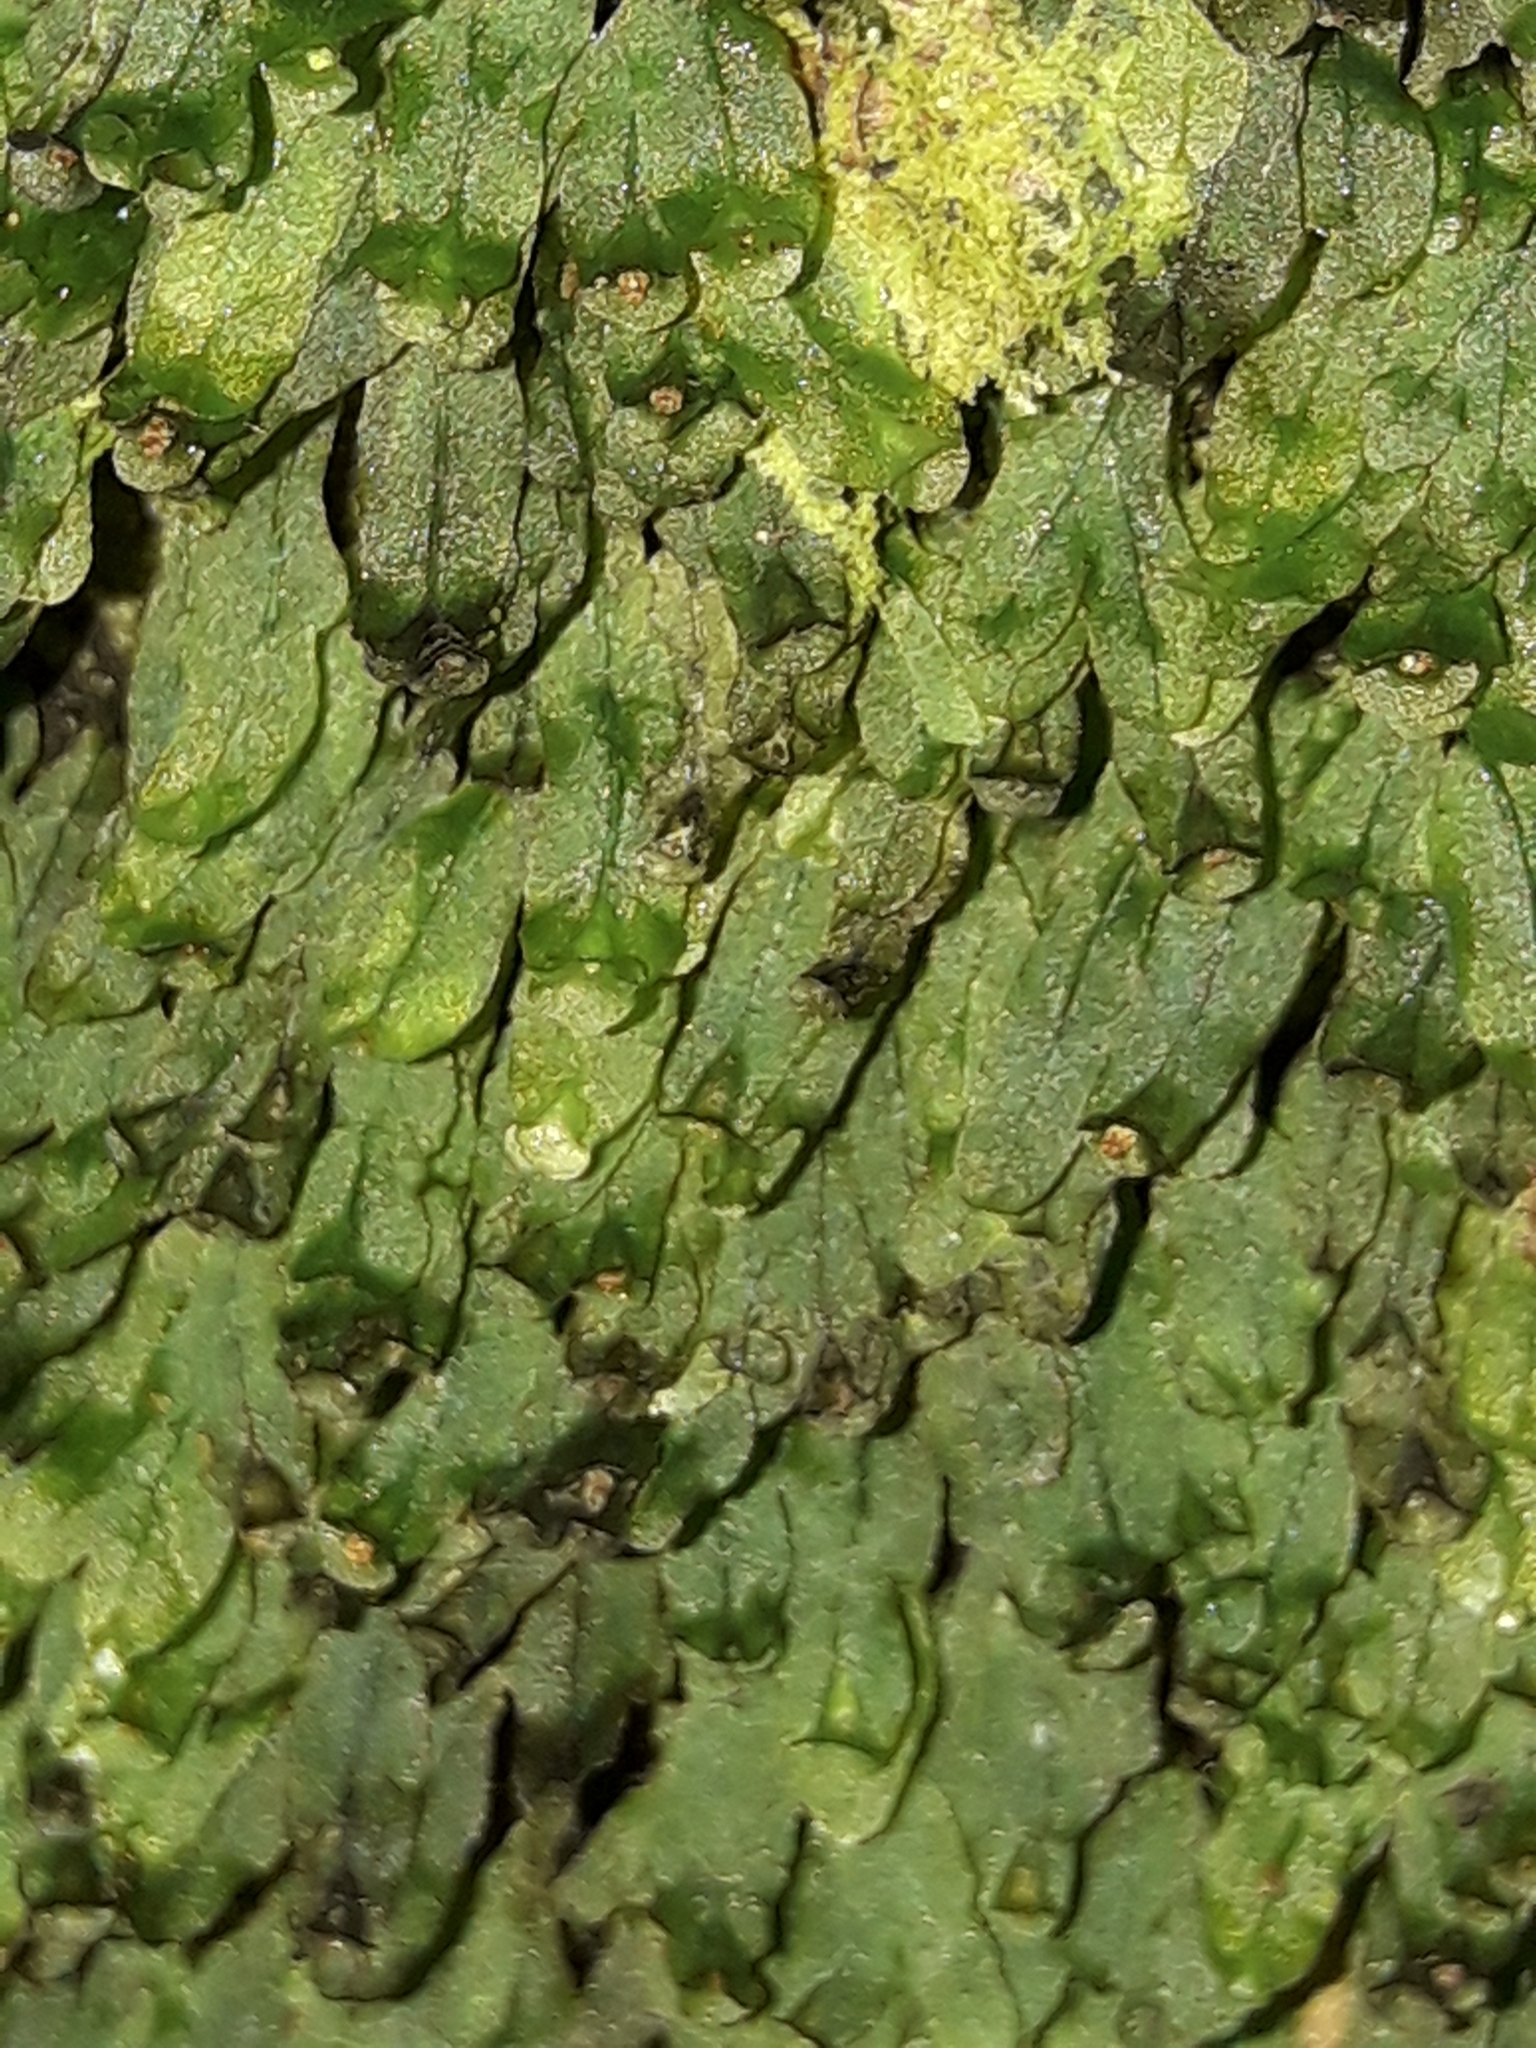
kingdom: Plantae
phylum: Tracheophyta
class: Polypodiopsida
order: Hymenophyllales
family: Hymenophyllaceae
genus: Crepidomanes
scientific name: Crepidomanes vitiense
